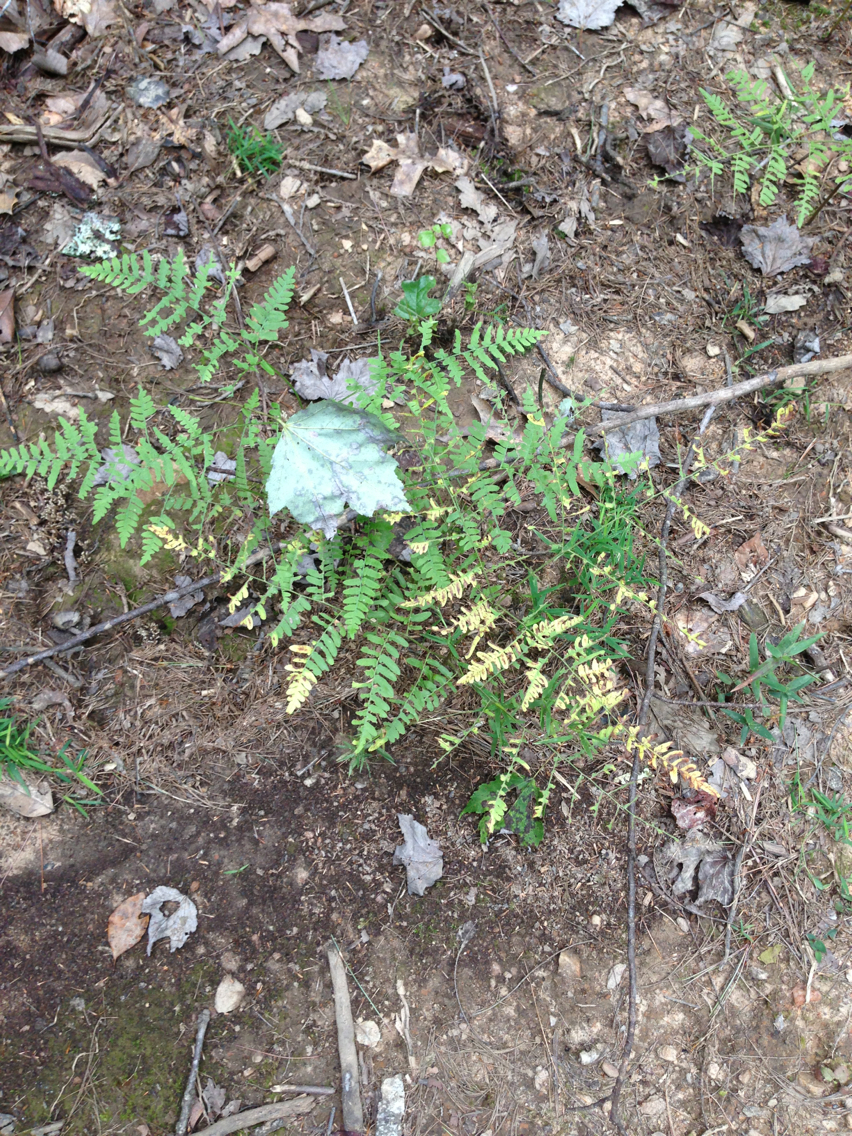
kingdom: Plantae
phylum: Tracheophyta
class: Polypodiopsida
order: Polypodiales
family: Dennstaedtiaceae
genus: Pteridium
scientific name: Pteridium aquilinum
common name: Bracken
